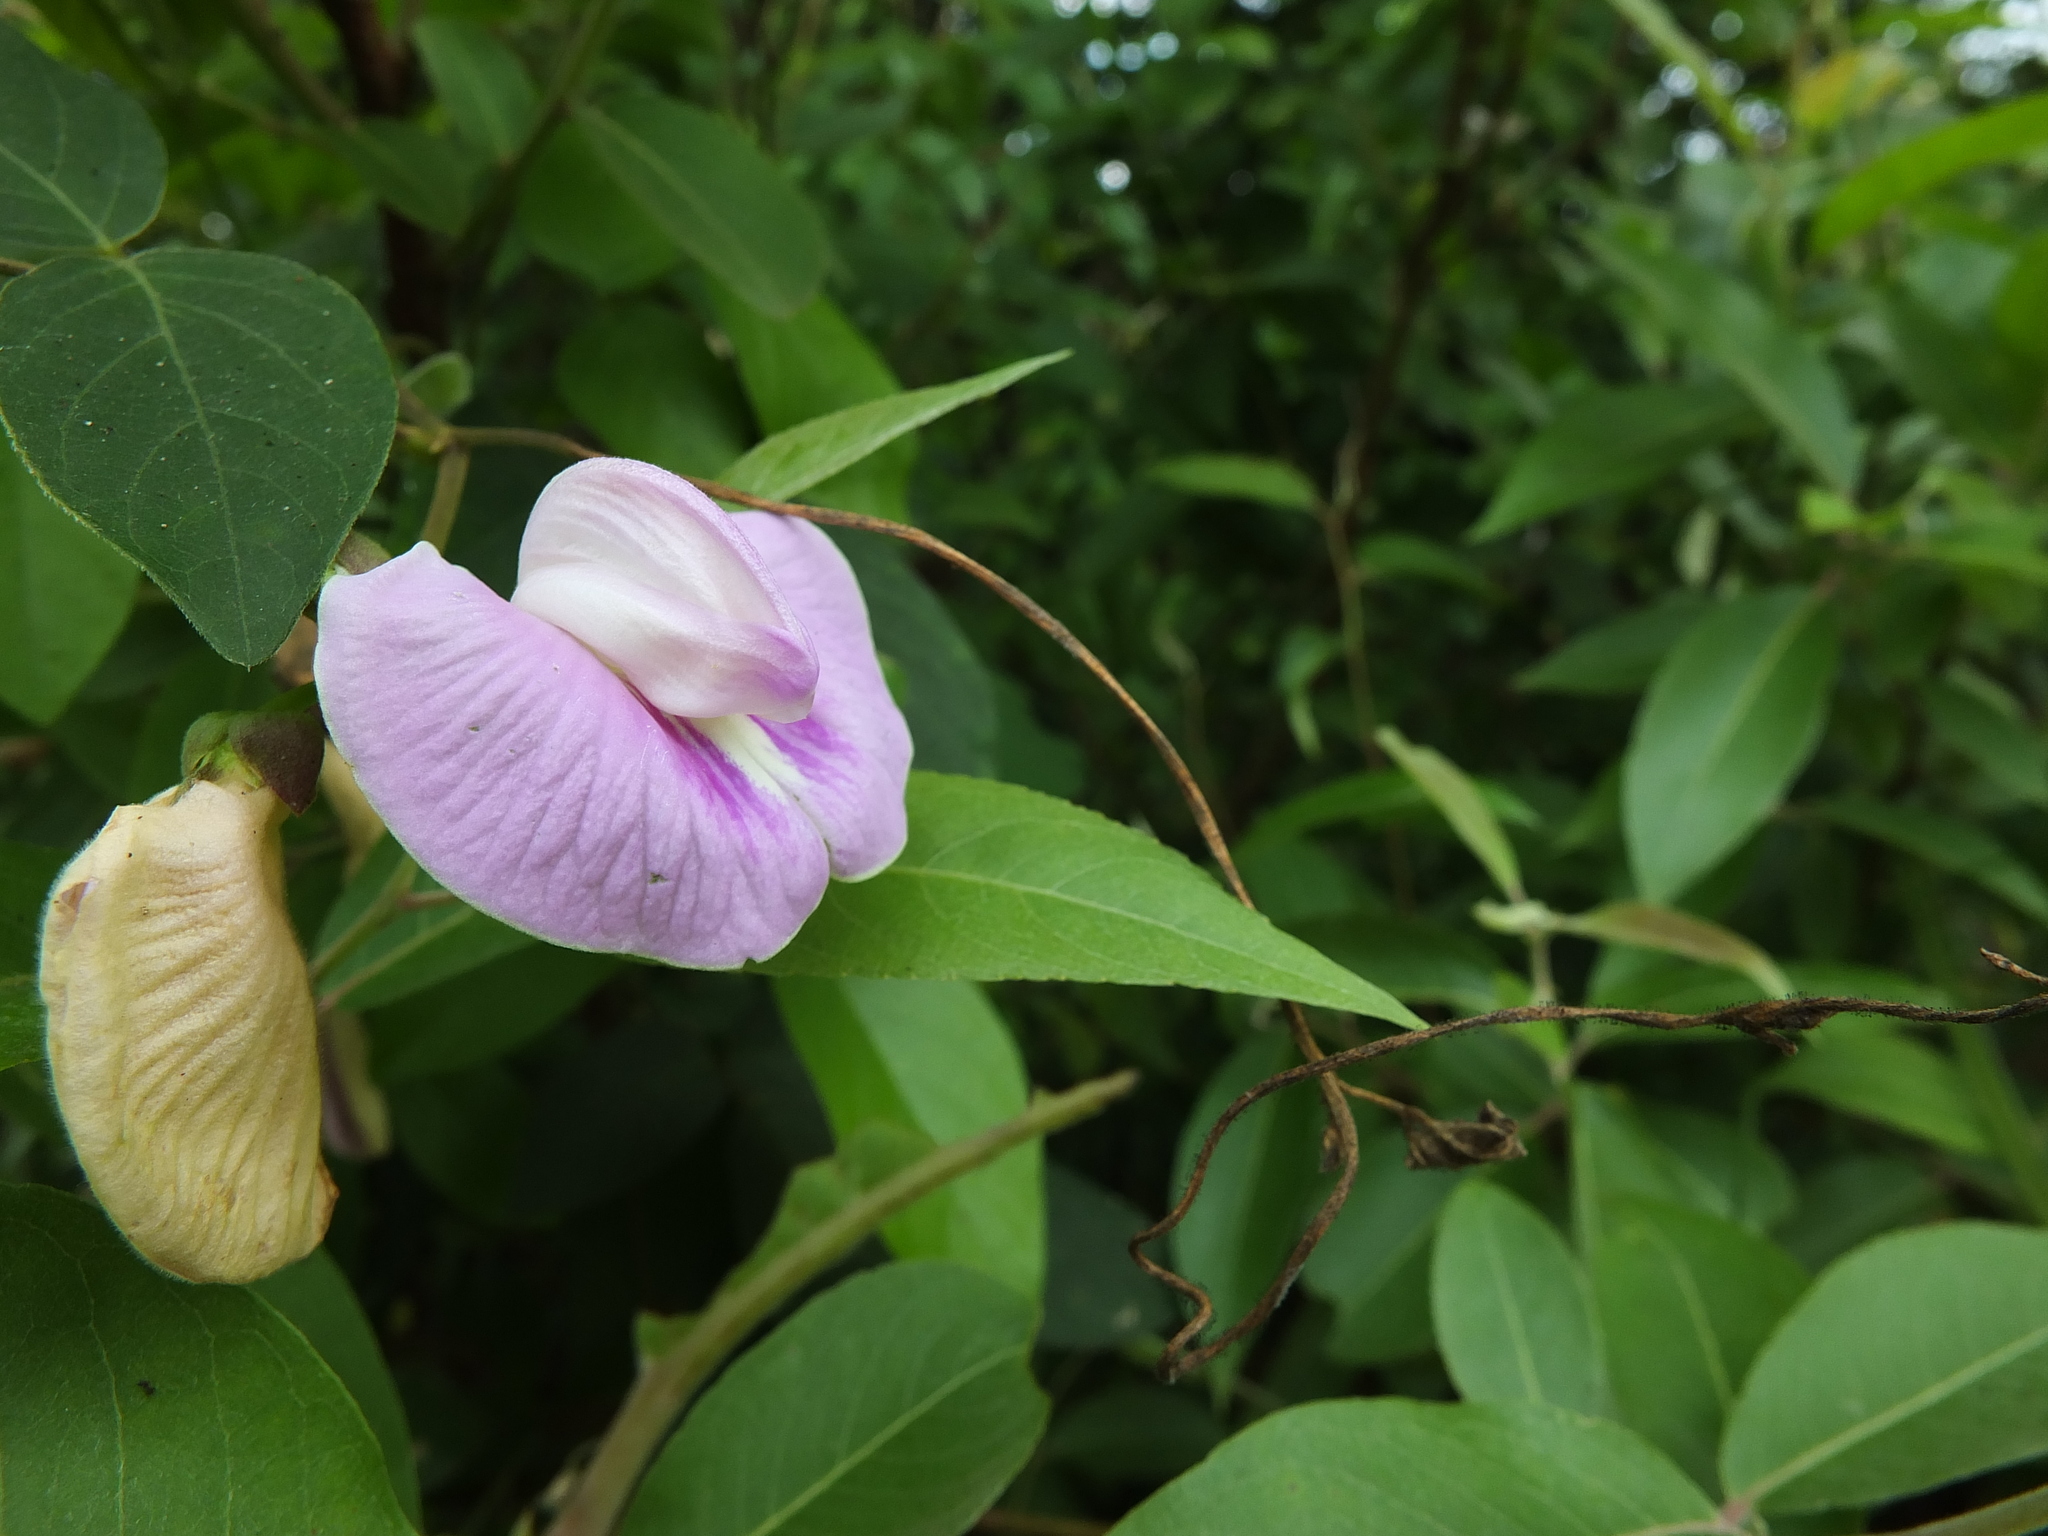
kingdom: Plantae
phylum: Tracheophyta
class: Magnoliopsida
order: Fabales
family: Fabaceae
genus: Centrosema
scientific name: Centrosema pubescens
